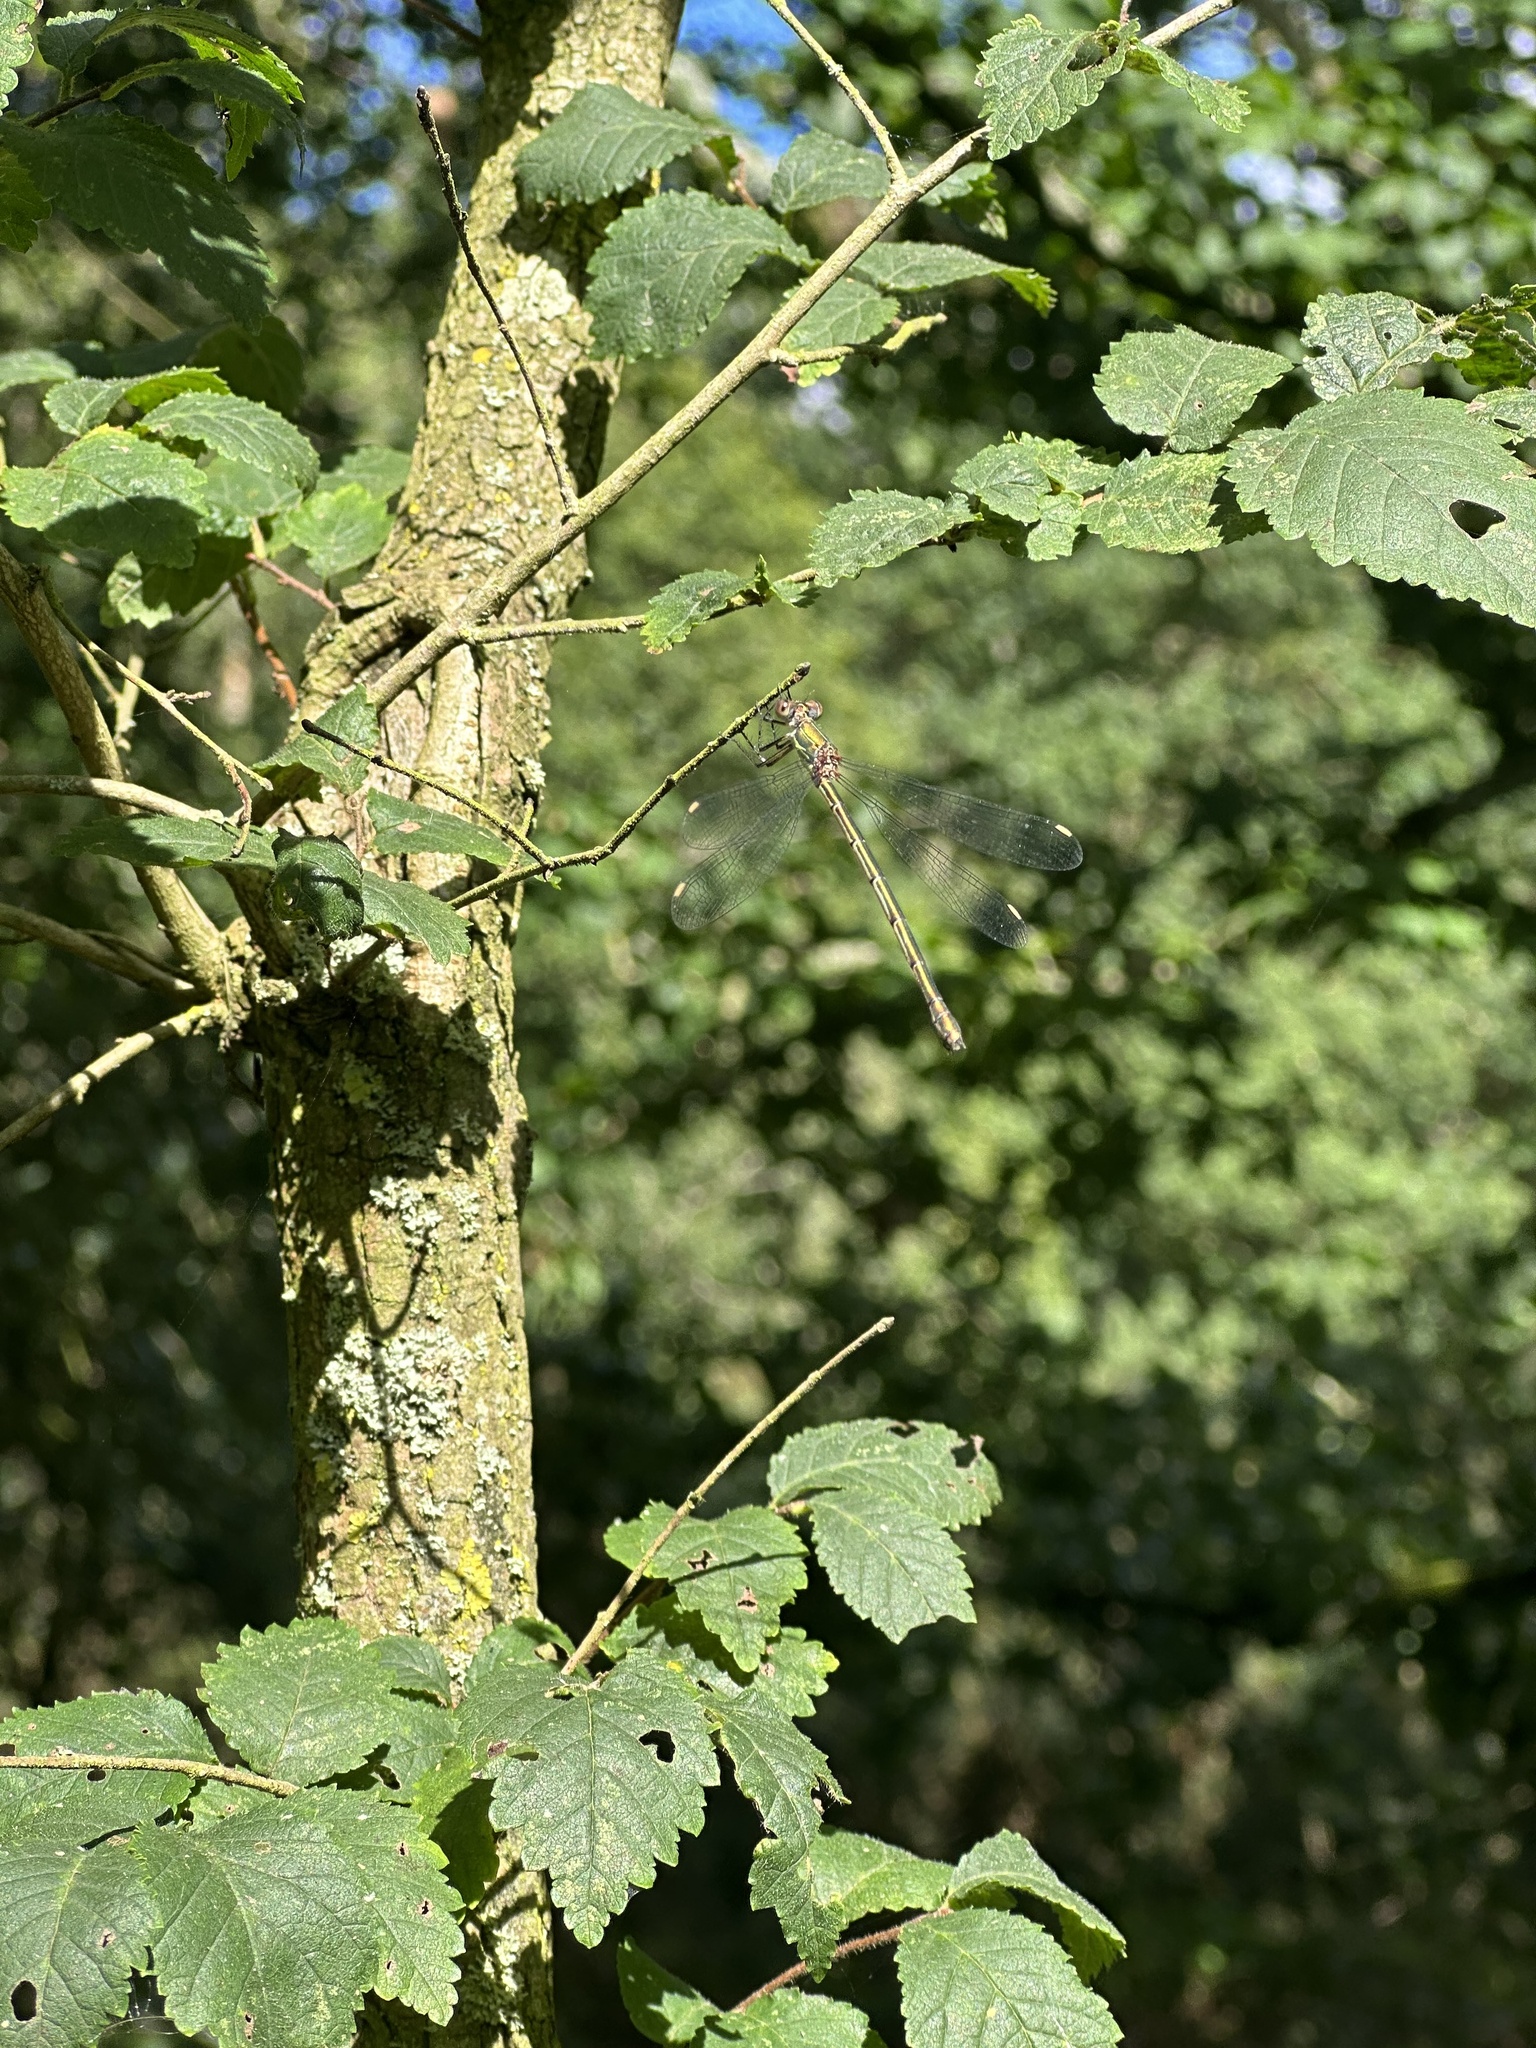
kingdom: Animalia
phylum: Arthropoda
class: Insecta
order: Odonata
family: Lestidae
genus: Chalcolestes
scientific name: Chalcolestes viridis
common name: Green emerald damselfly
